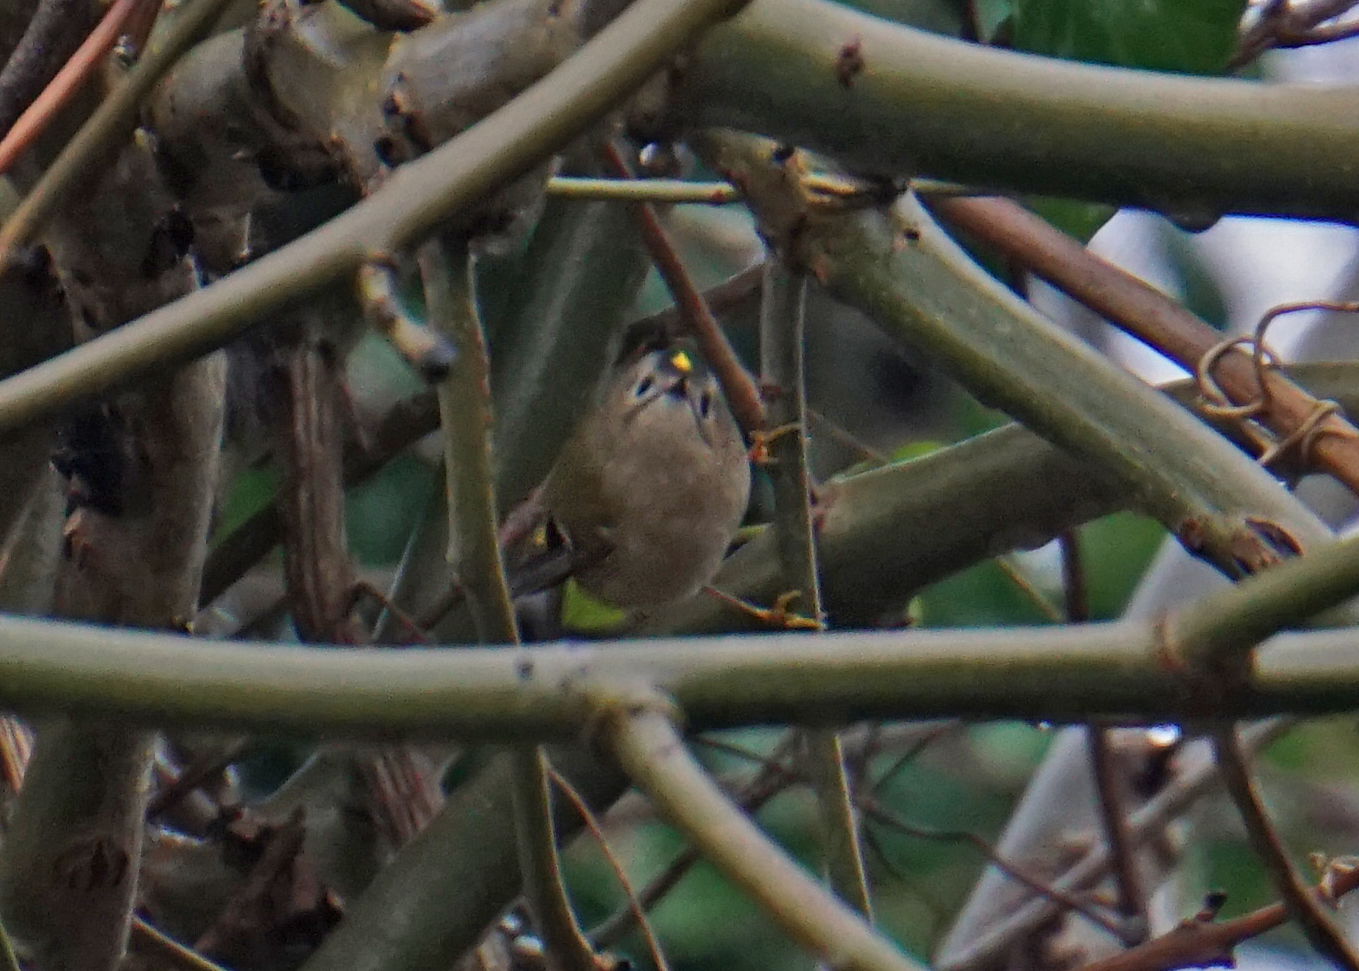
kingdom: Animalia
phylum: Chordata
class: Aves
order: Passeriformes
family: Regulidae
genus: Regulus
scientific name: Regulus regulus
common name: Goldcrest
